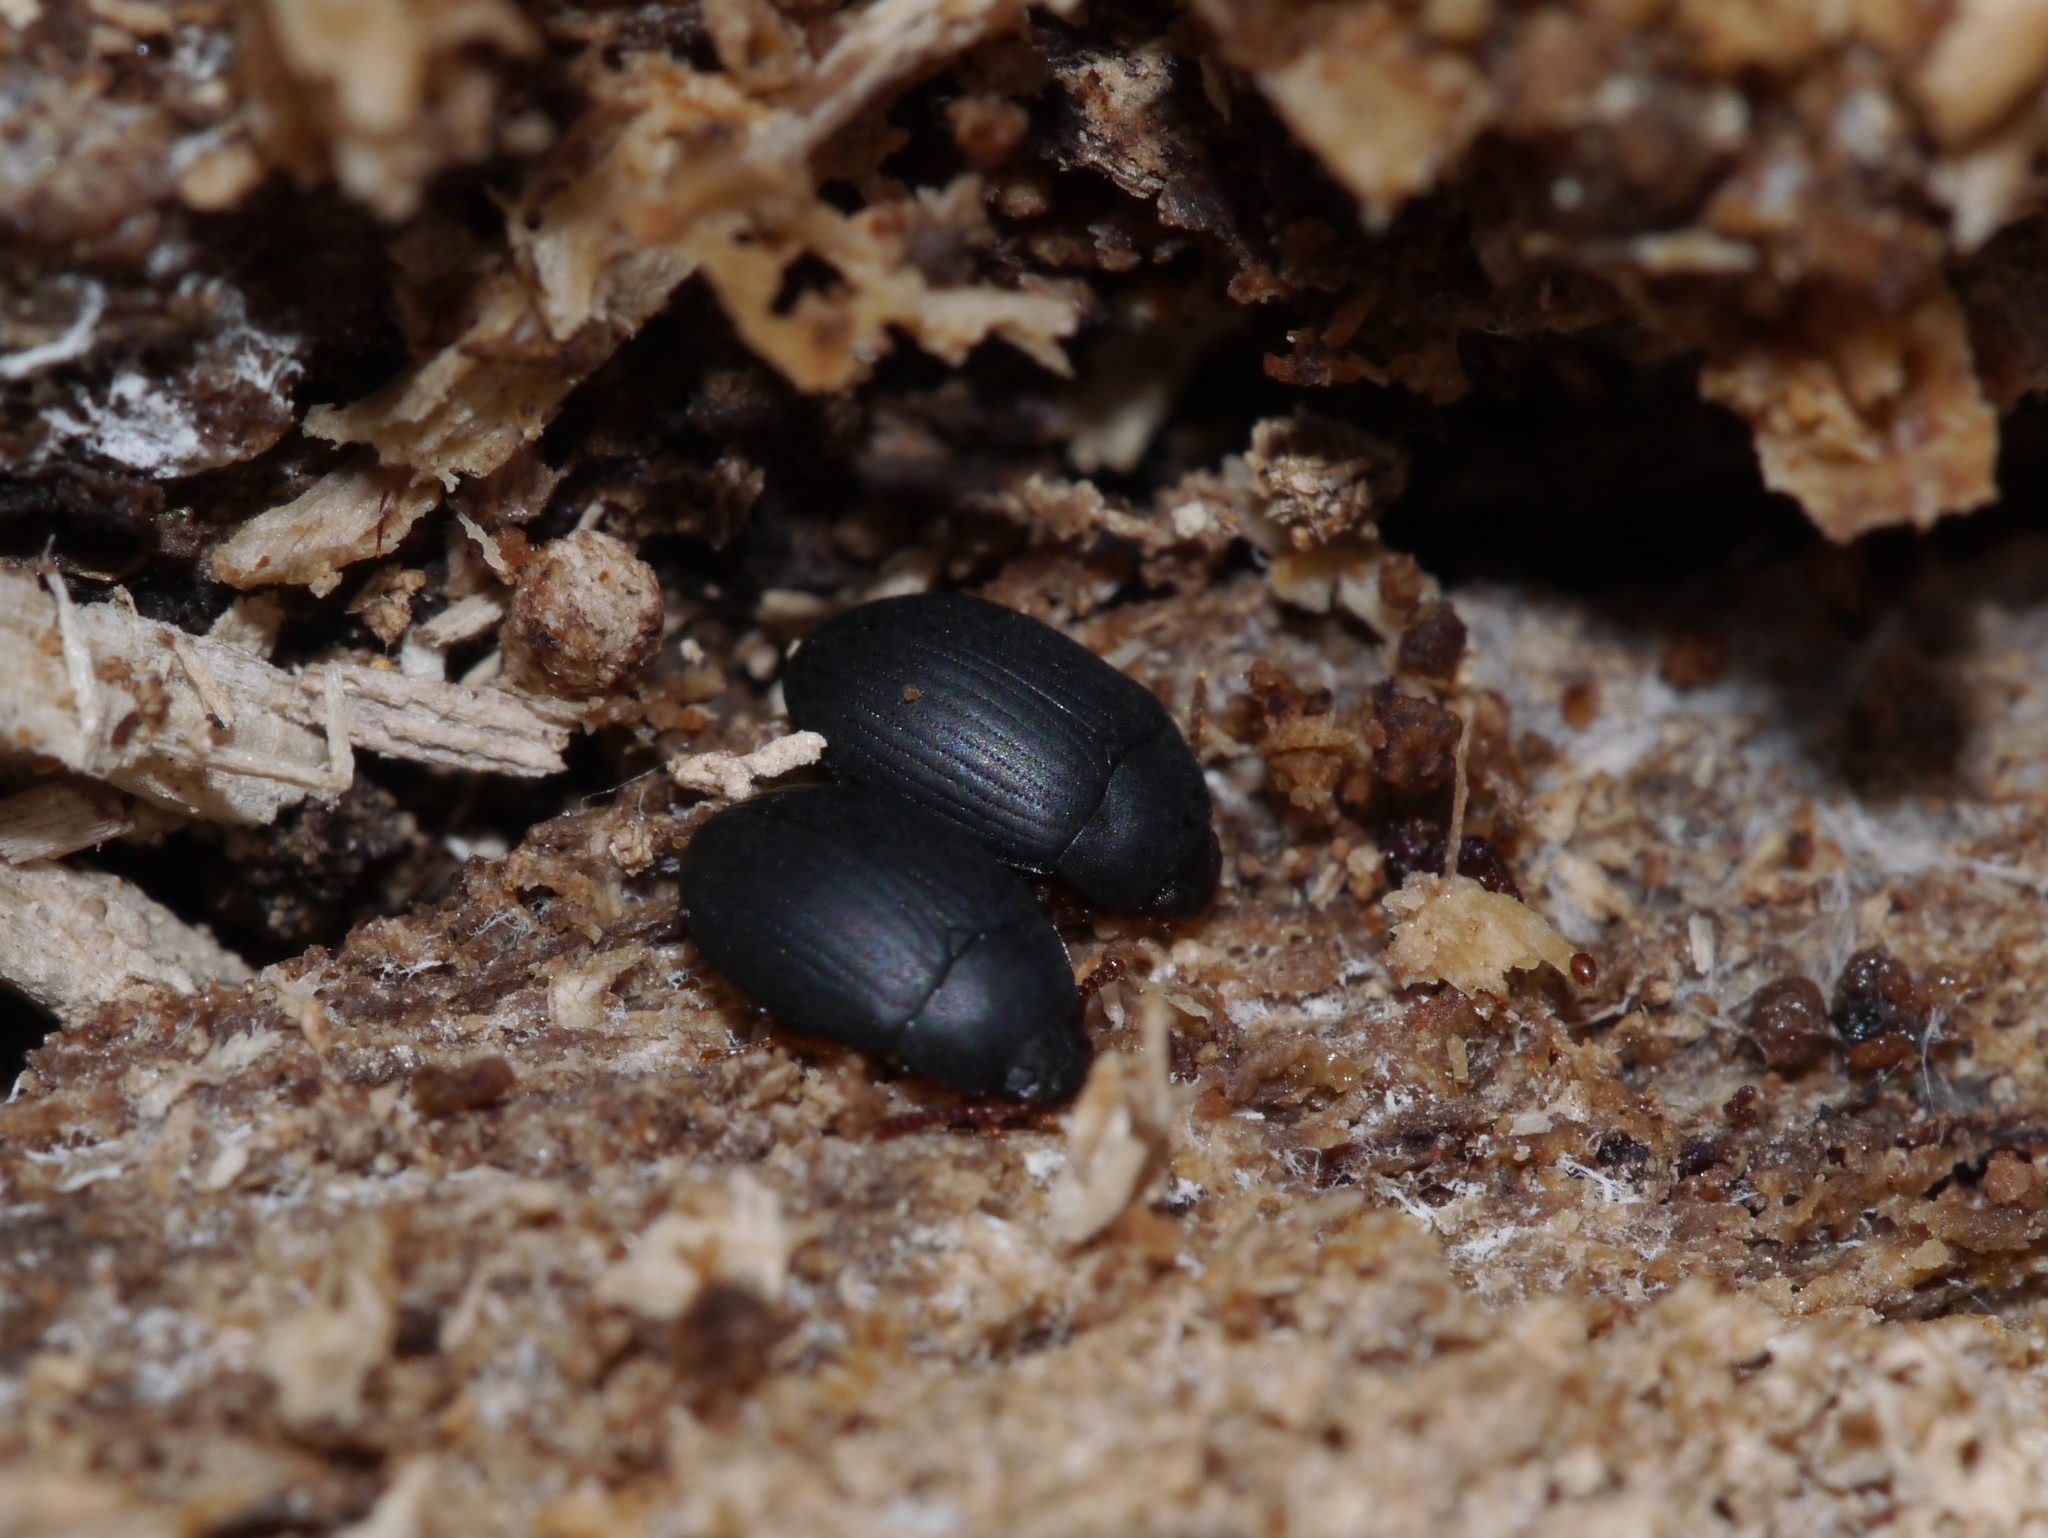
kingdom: Animalia
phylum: Arthropoda
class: Insecta
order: Coleoptera
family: Tenebrionidae
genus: Platydema
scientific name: Platydema ruficornis
